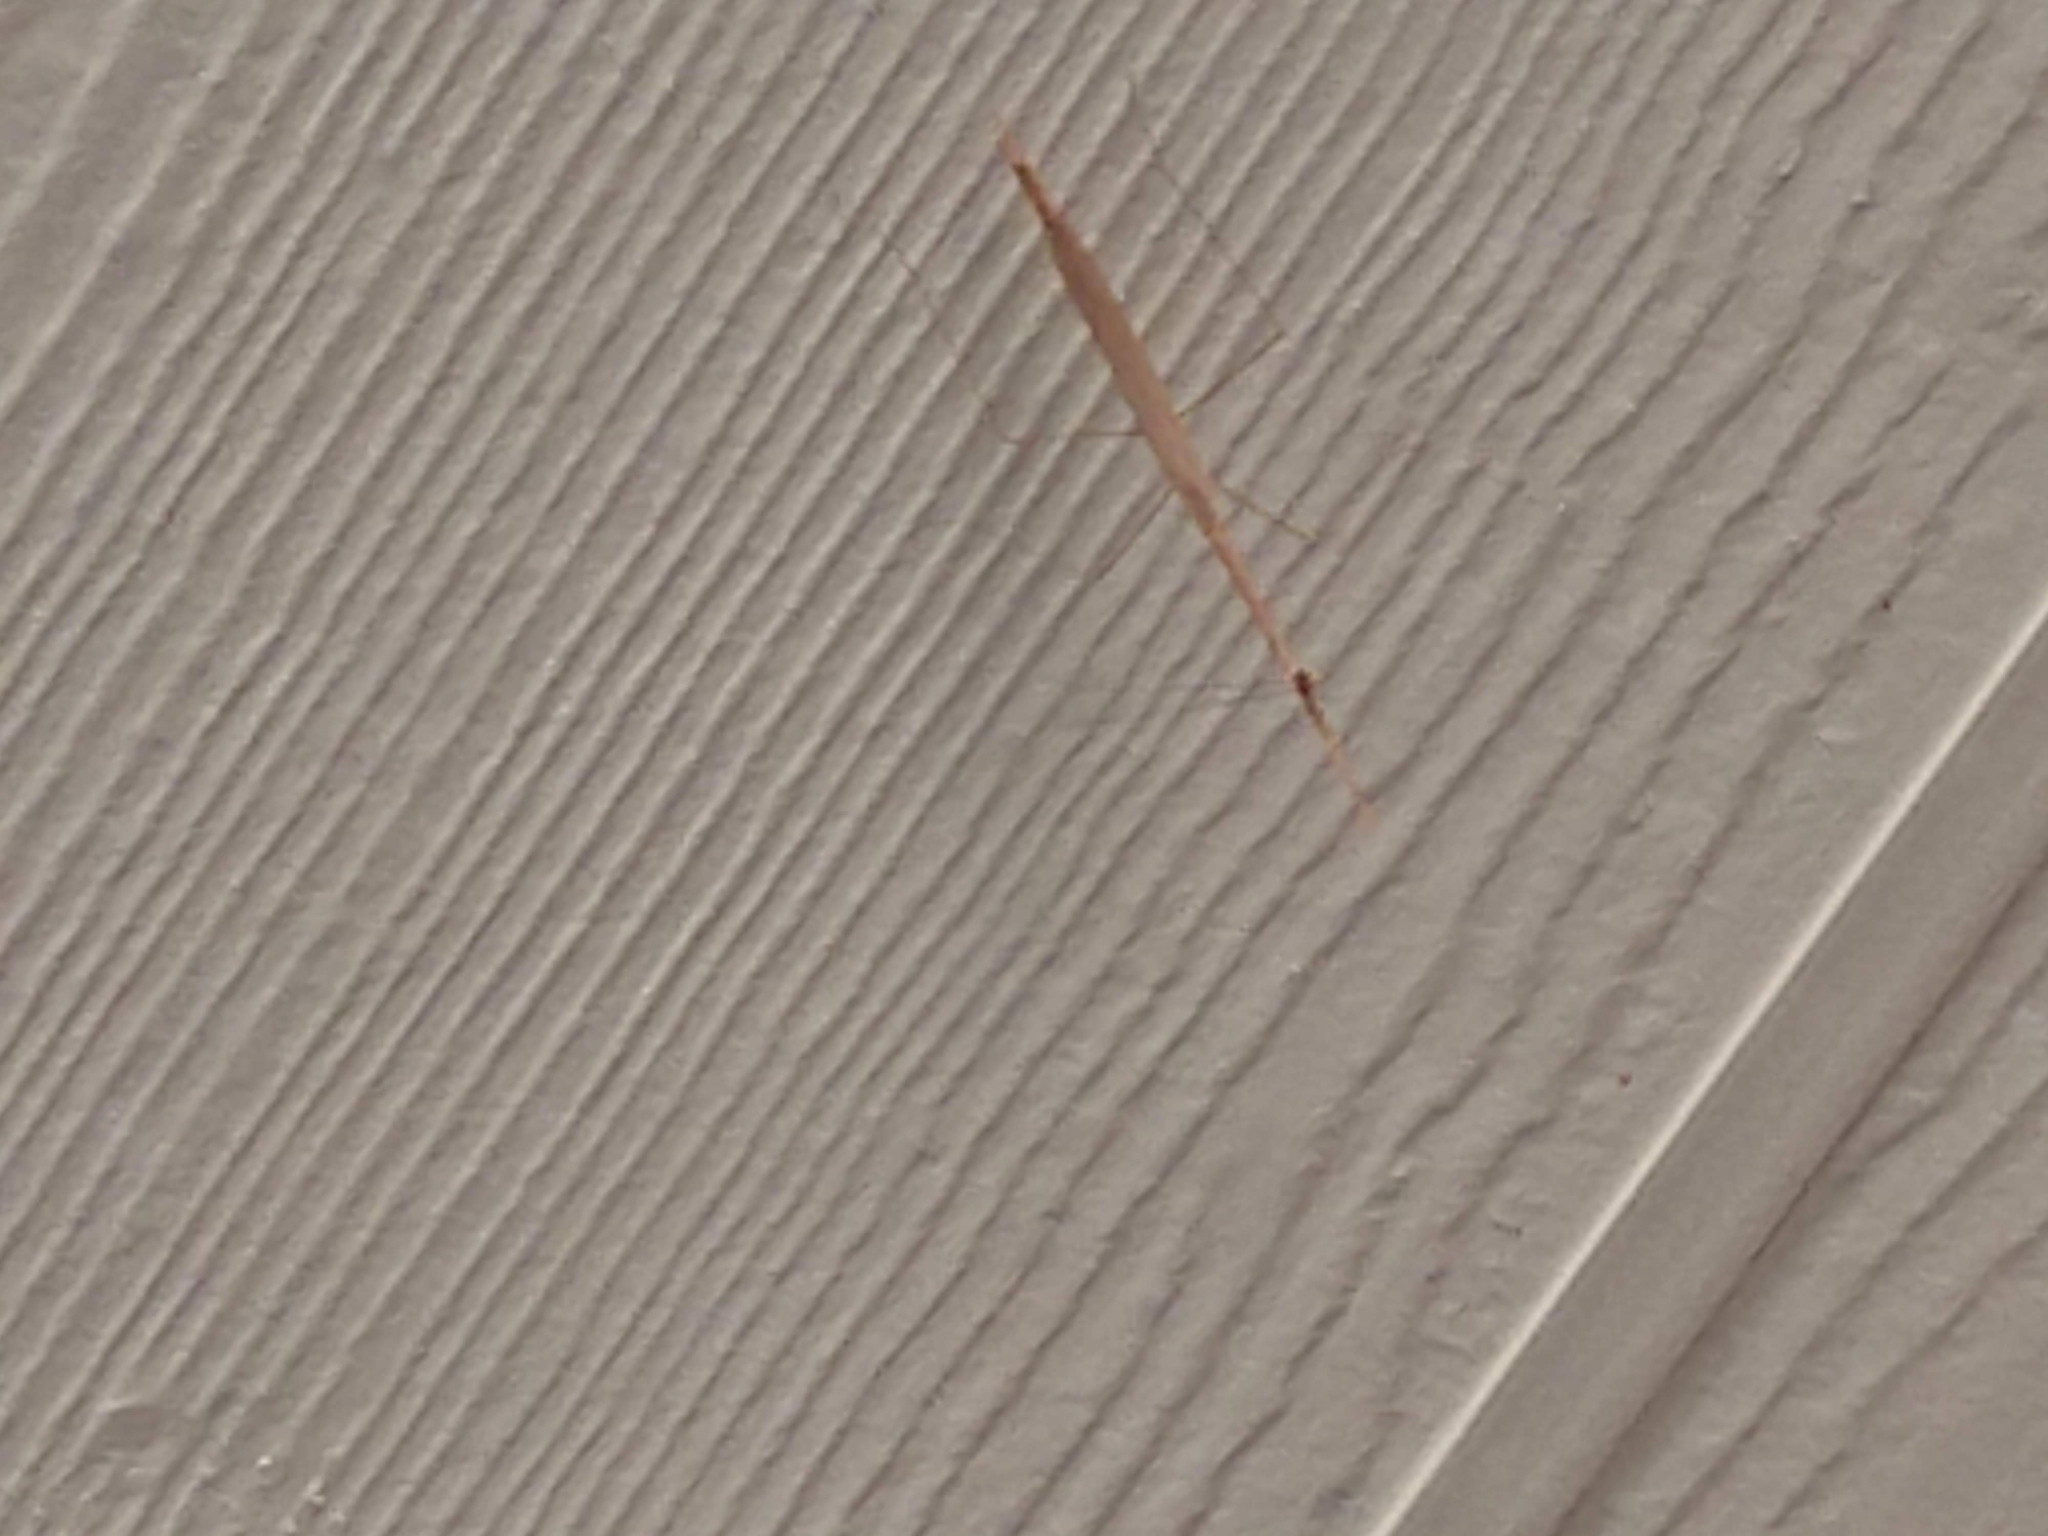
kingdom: Animalia
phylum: Arthropoda
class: Insecta
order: Mantodea
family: Thespidae
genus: Thesprotia
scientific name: Thesprotia graminis
